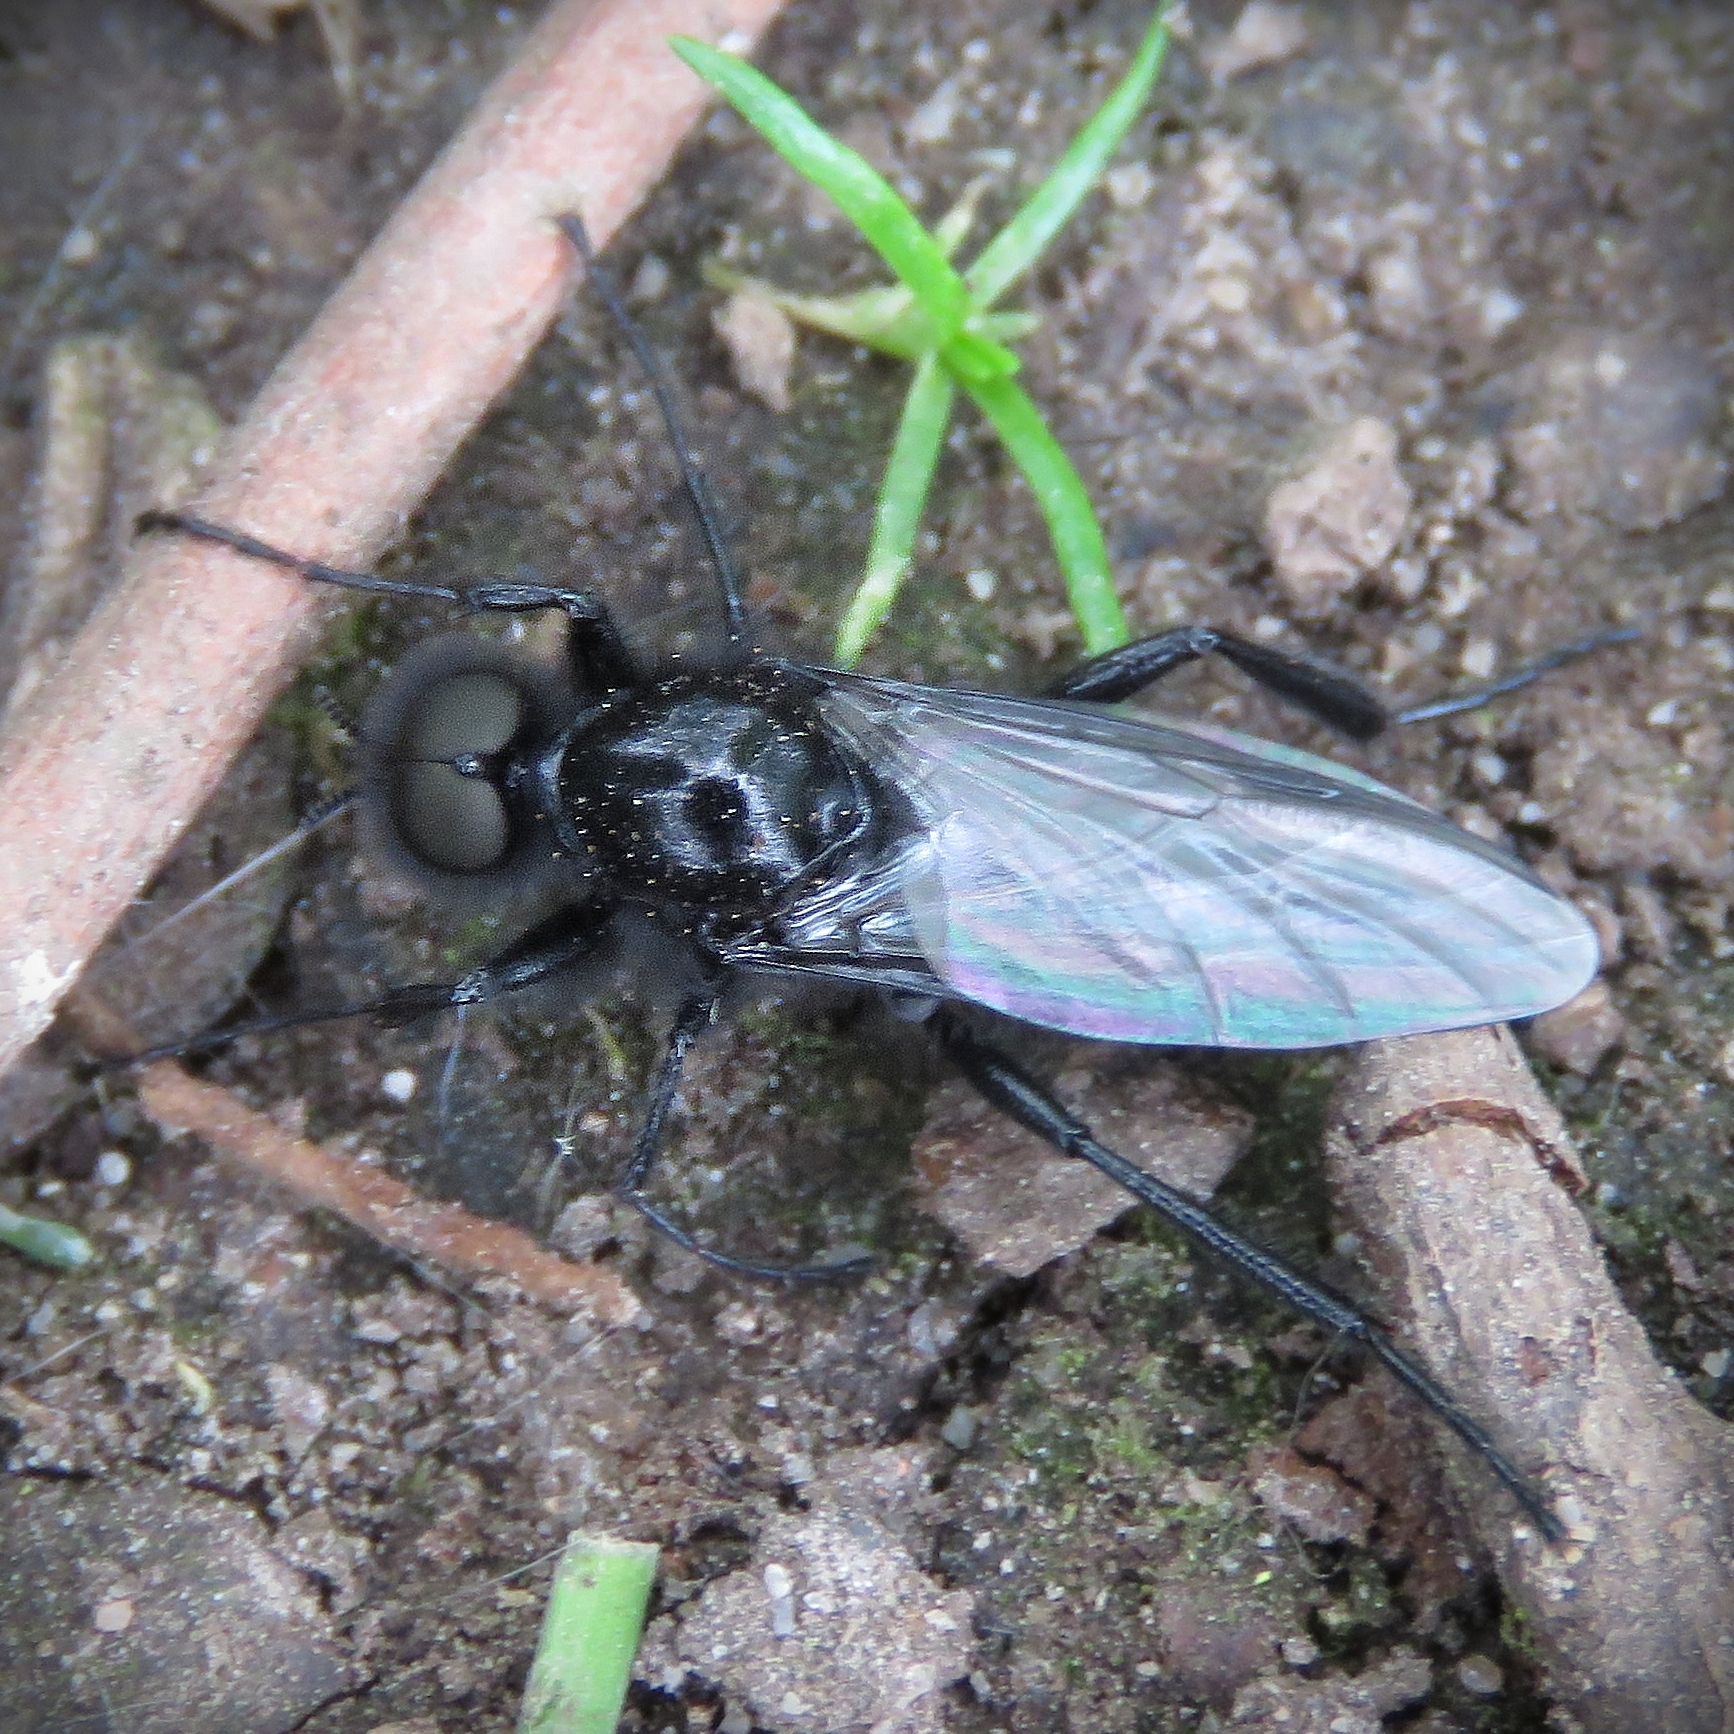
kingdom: Animalia
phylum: Arthropoda
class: Insecta
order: Diptera
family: Bibionidae
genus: Bibio
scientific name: Bibio marci
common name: St marks fly
